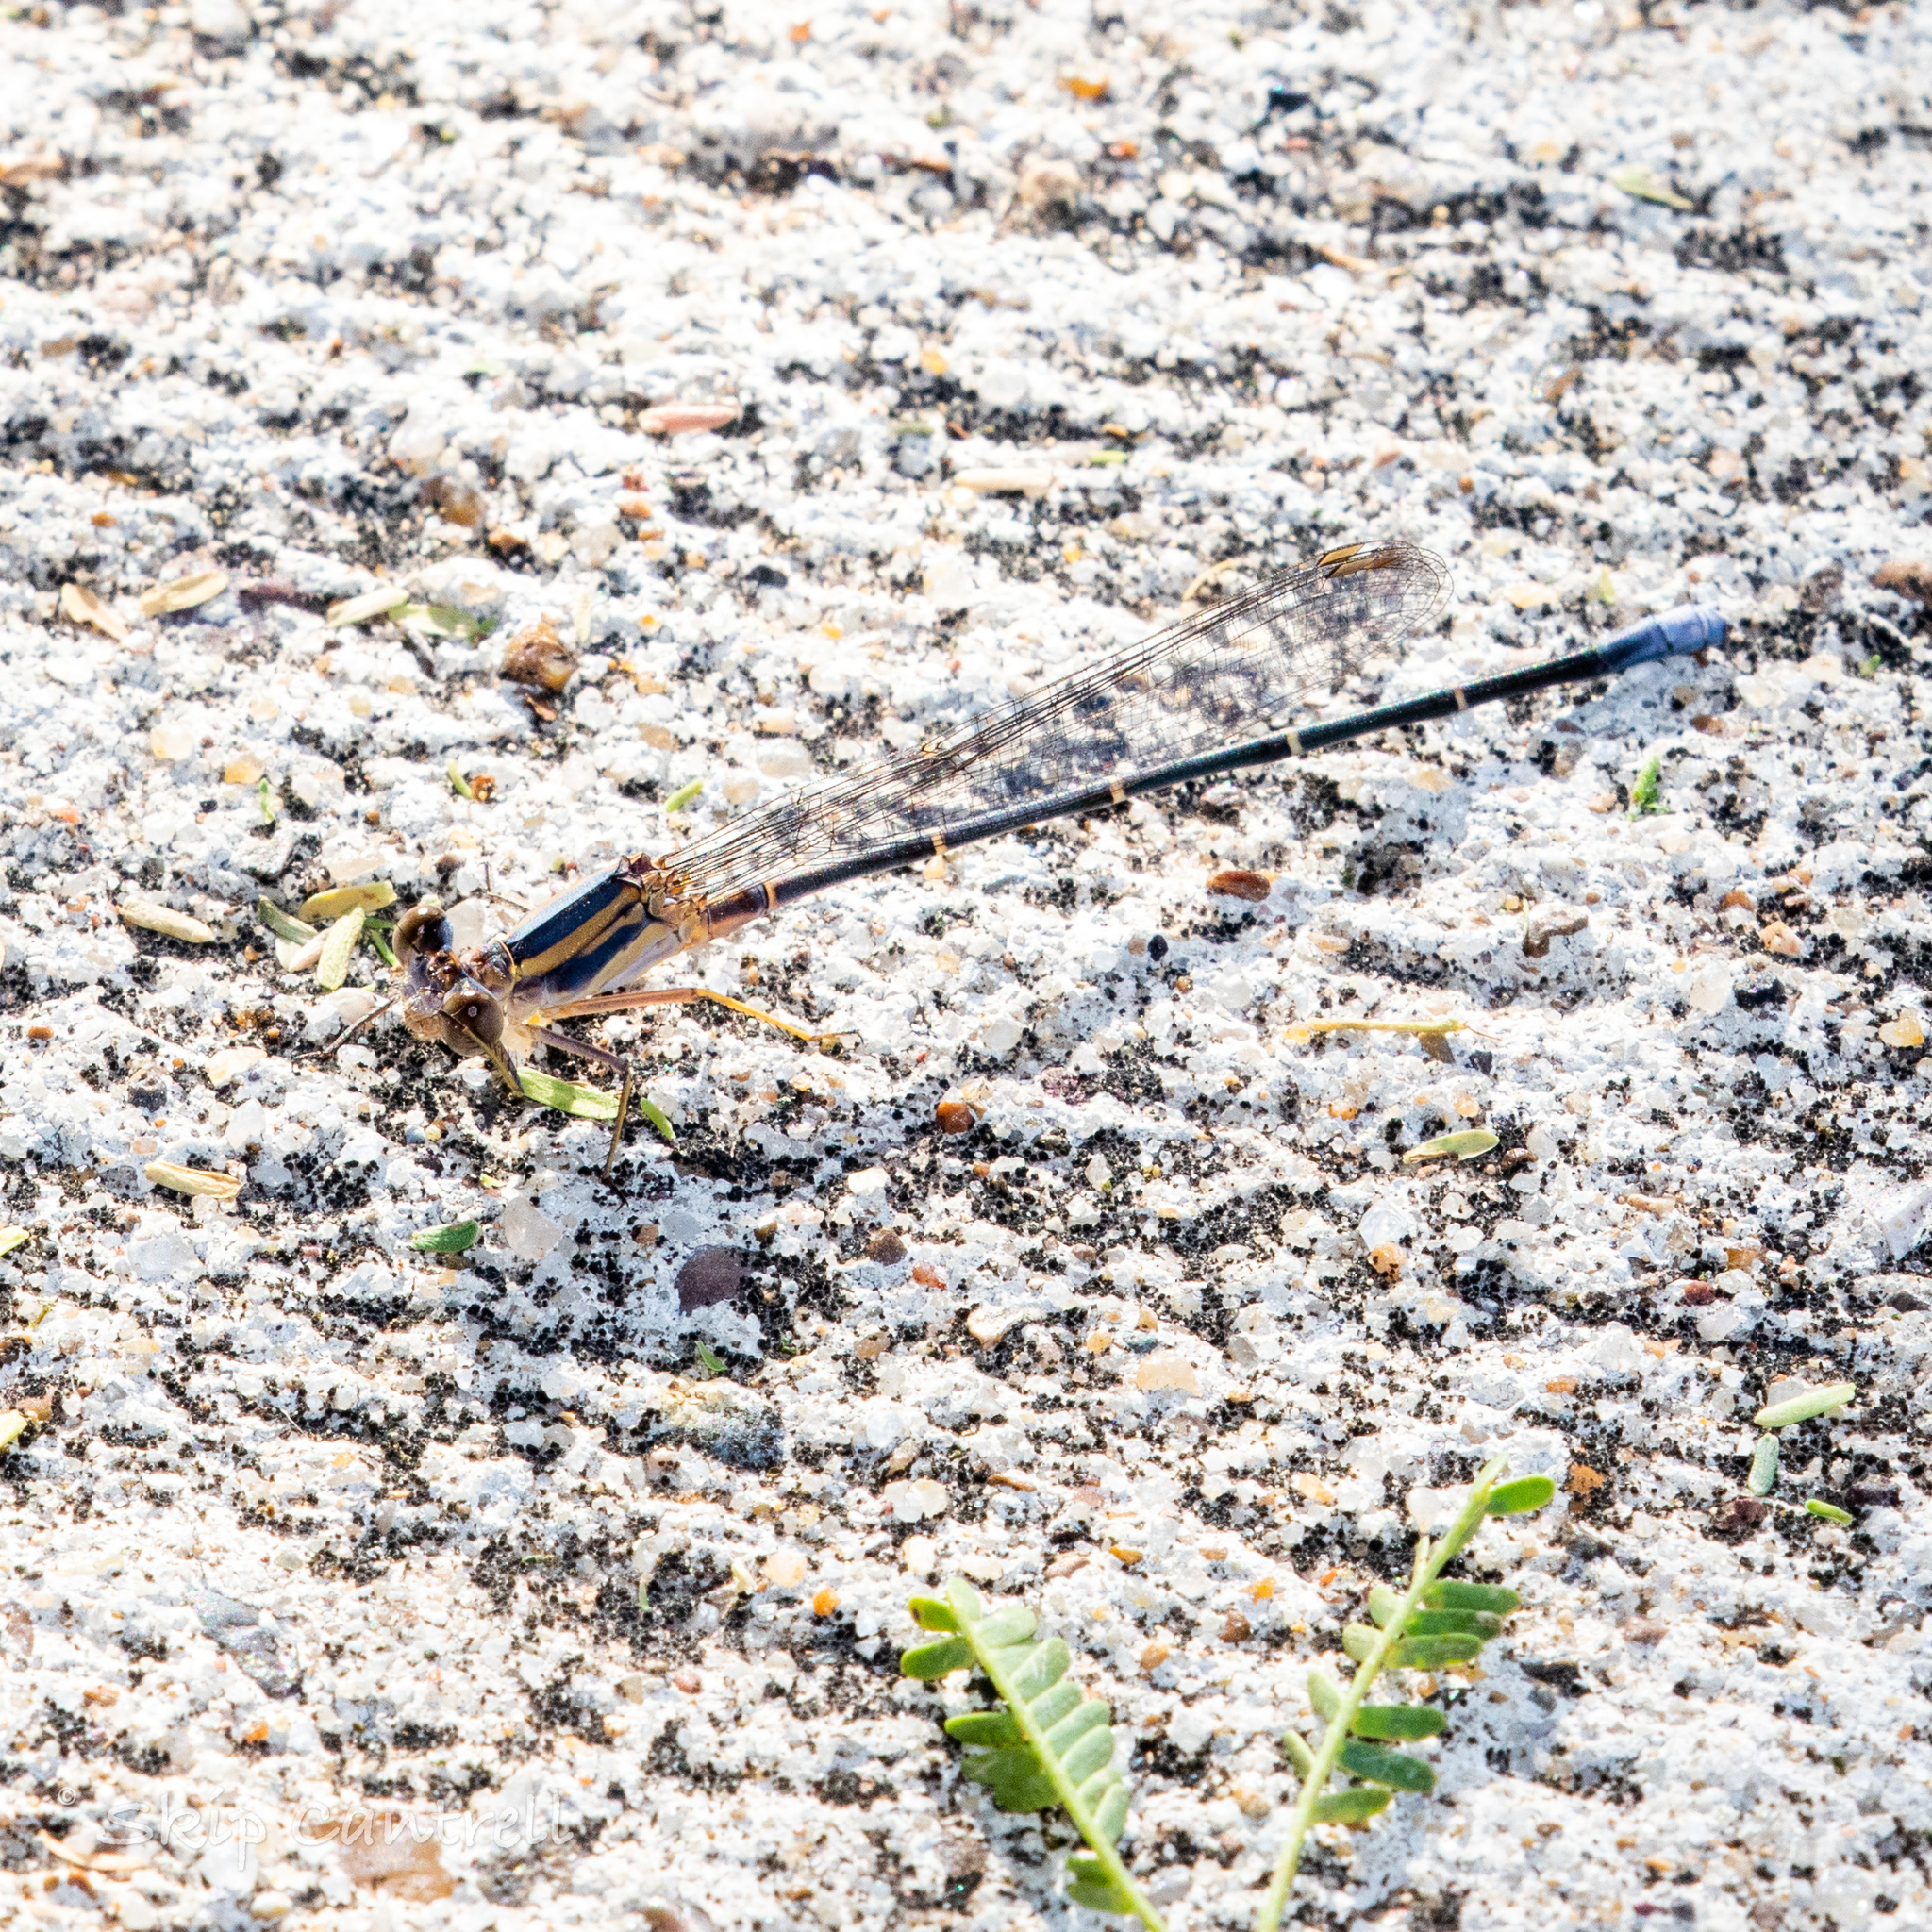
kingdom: Animalia
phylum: Arthropoda
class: Insecta
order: Odonata
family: Coenagrionidae
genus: Argia
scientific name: Argia moesta
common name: Powdered dancer
